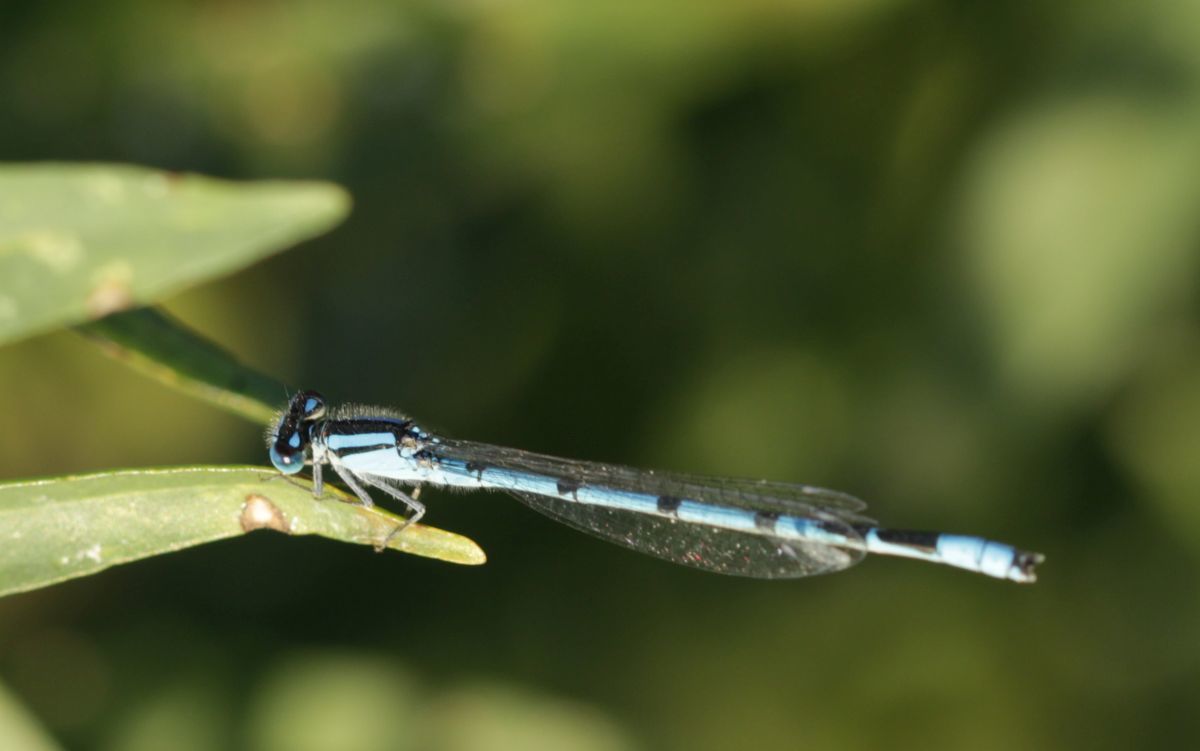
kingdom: Animalia
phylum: Arthropoda
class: Insecta
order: Odonata
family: Coenagrionidae
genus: Enallagma
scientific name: Enallagma civile
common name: Damselfly
